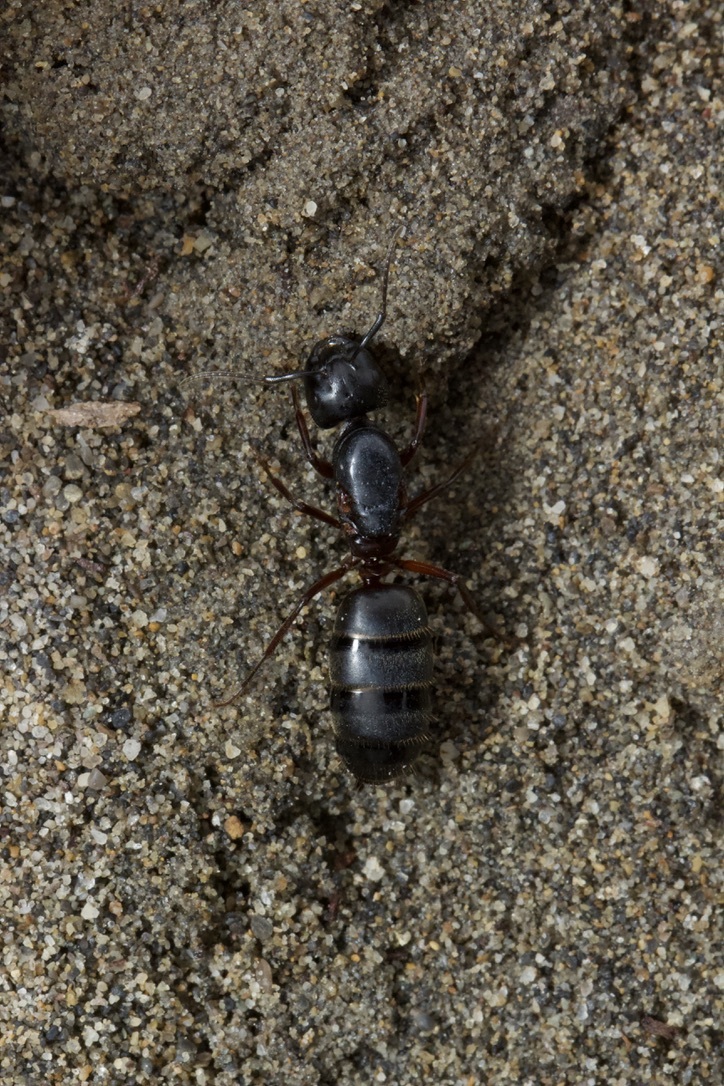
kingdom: Animalia
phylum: Arthropoda
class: Insecta
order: Hymenoptera
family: Formicidae
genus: Camponotus
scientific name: Camponotus herculeanus
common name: Hercules ant
